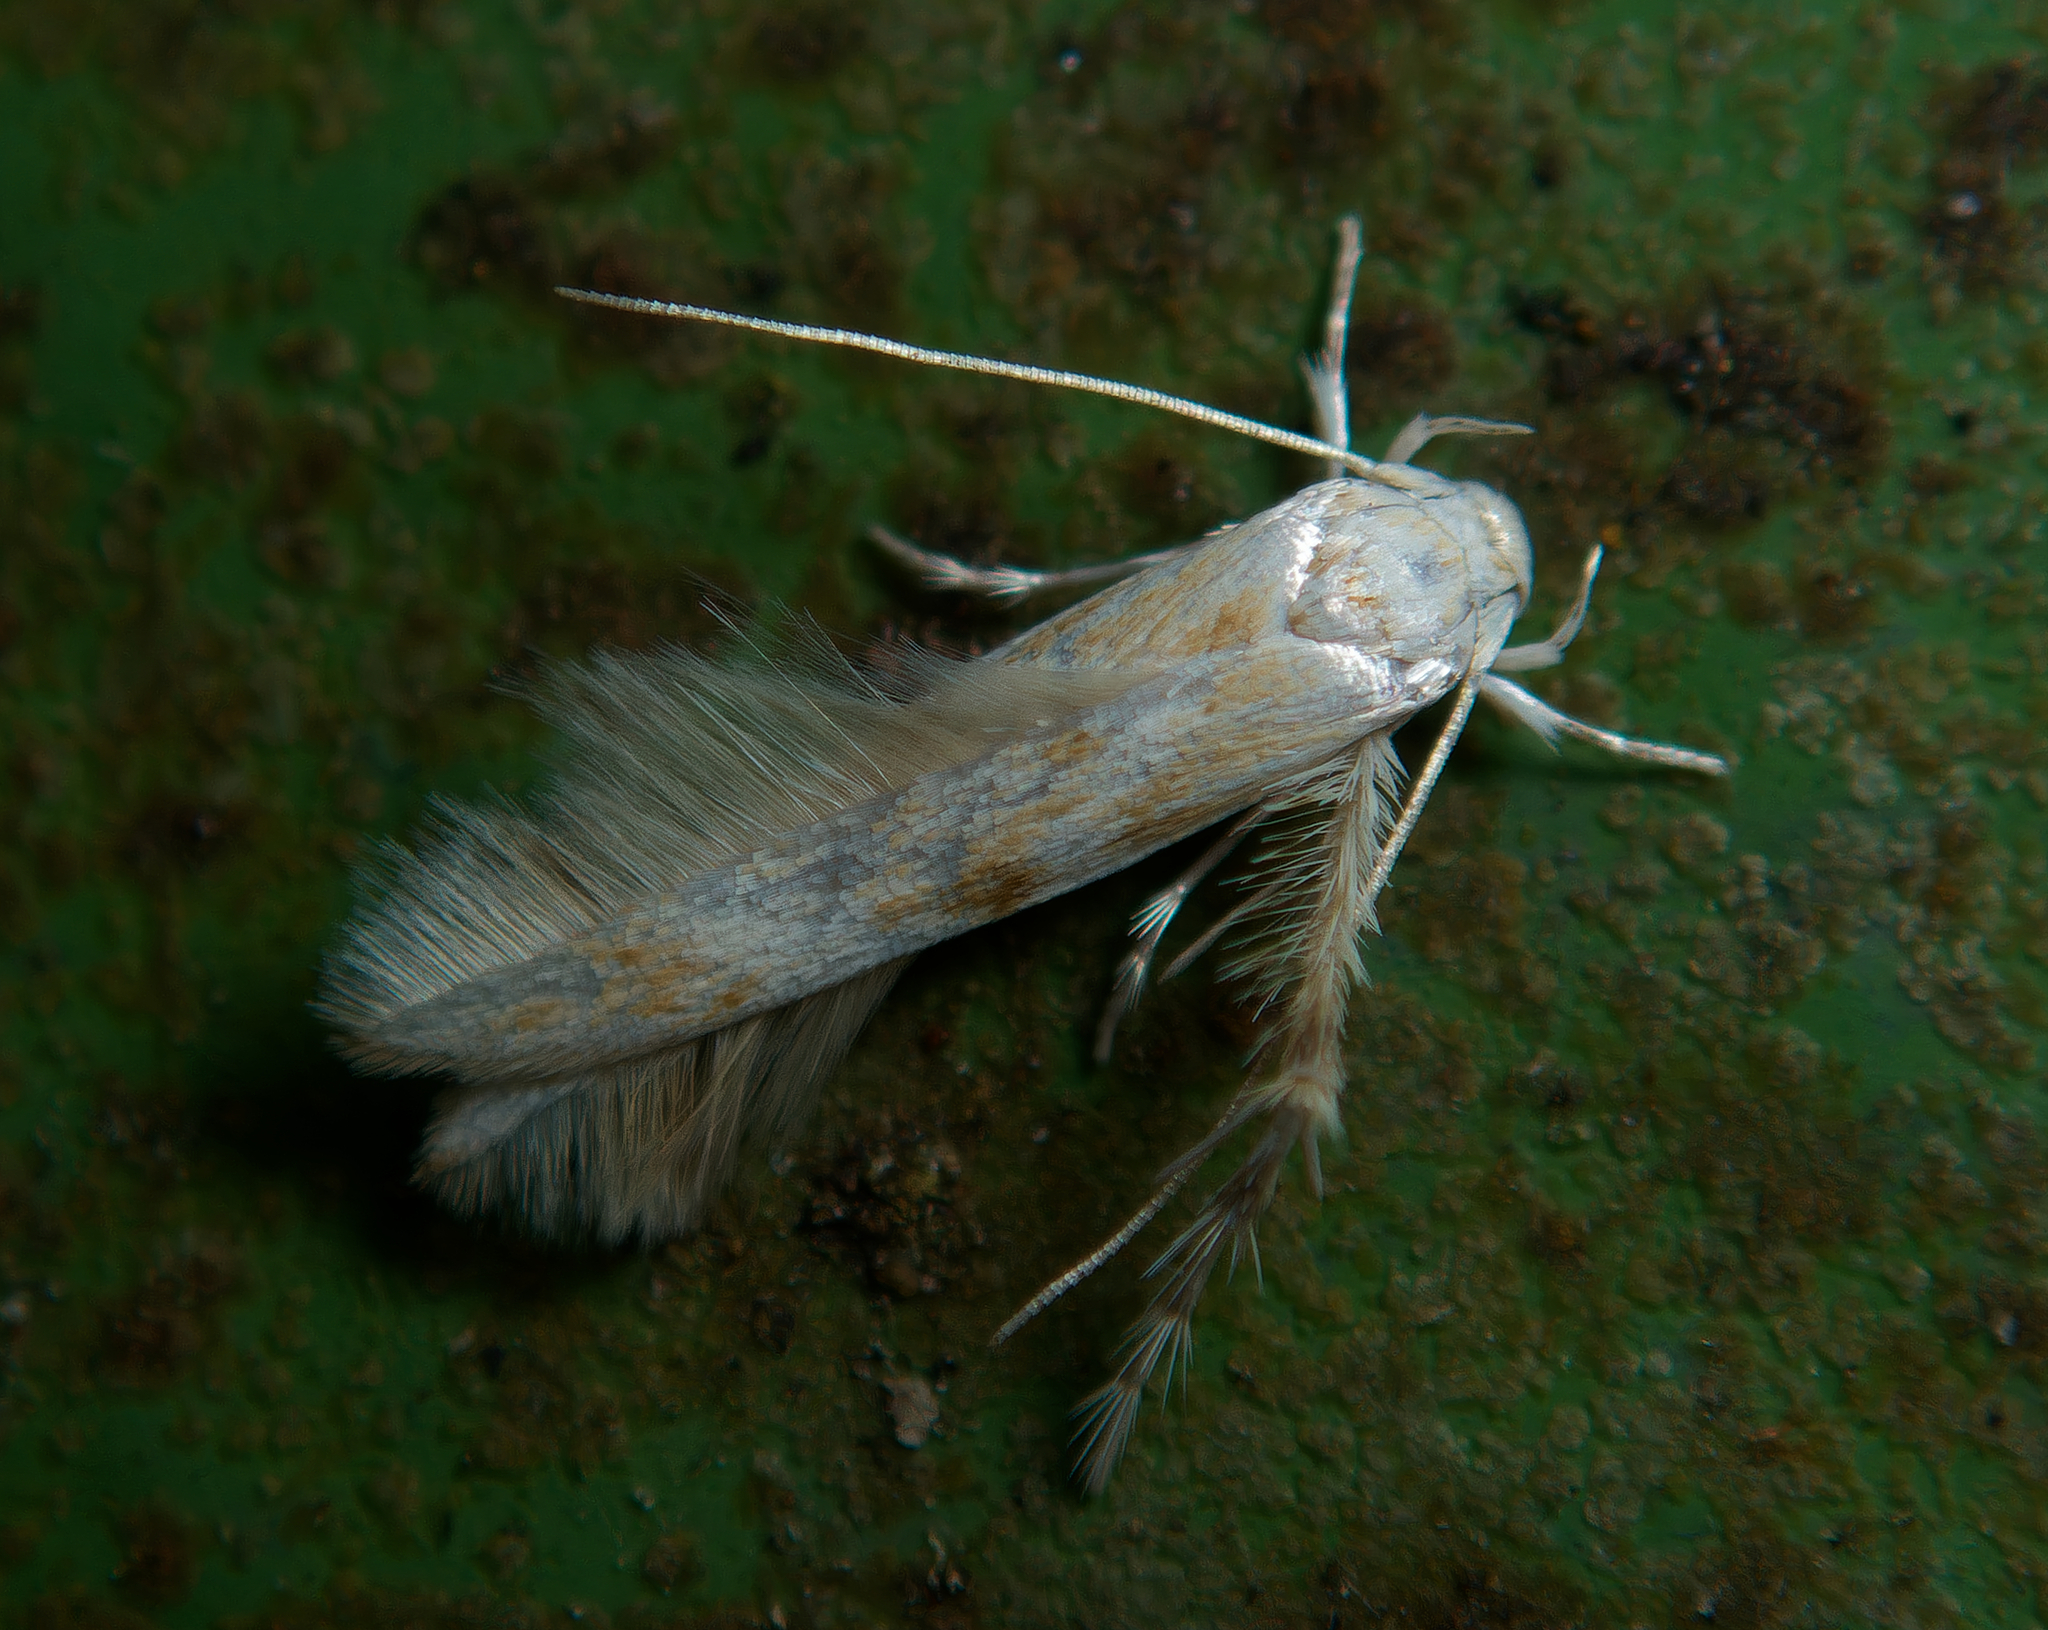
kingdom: Animalia
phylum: Arthropoda
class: Insecta
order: Lepidoptera
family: Stathmopodidae
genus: Calicotis
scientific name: Calicotis crucifera
